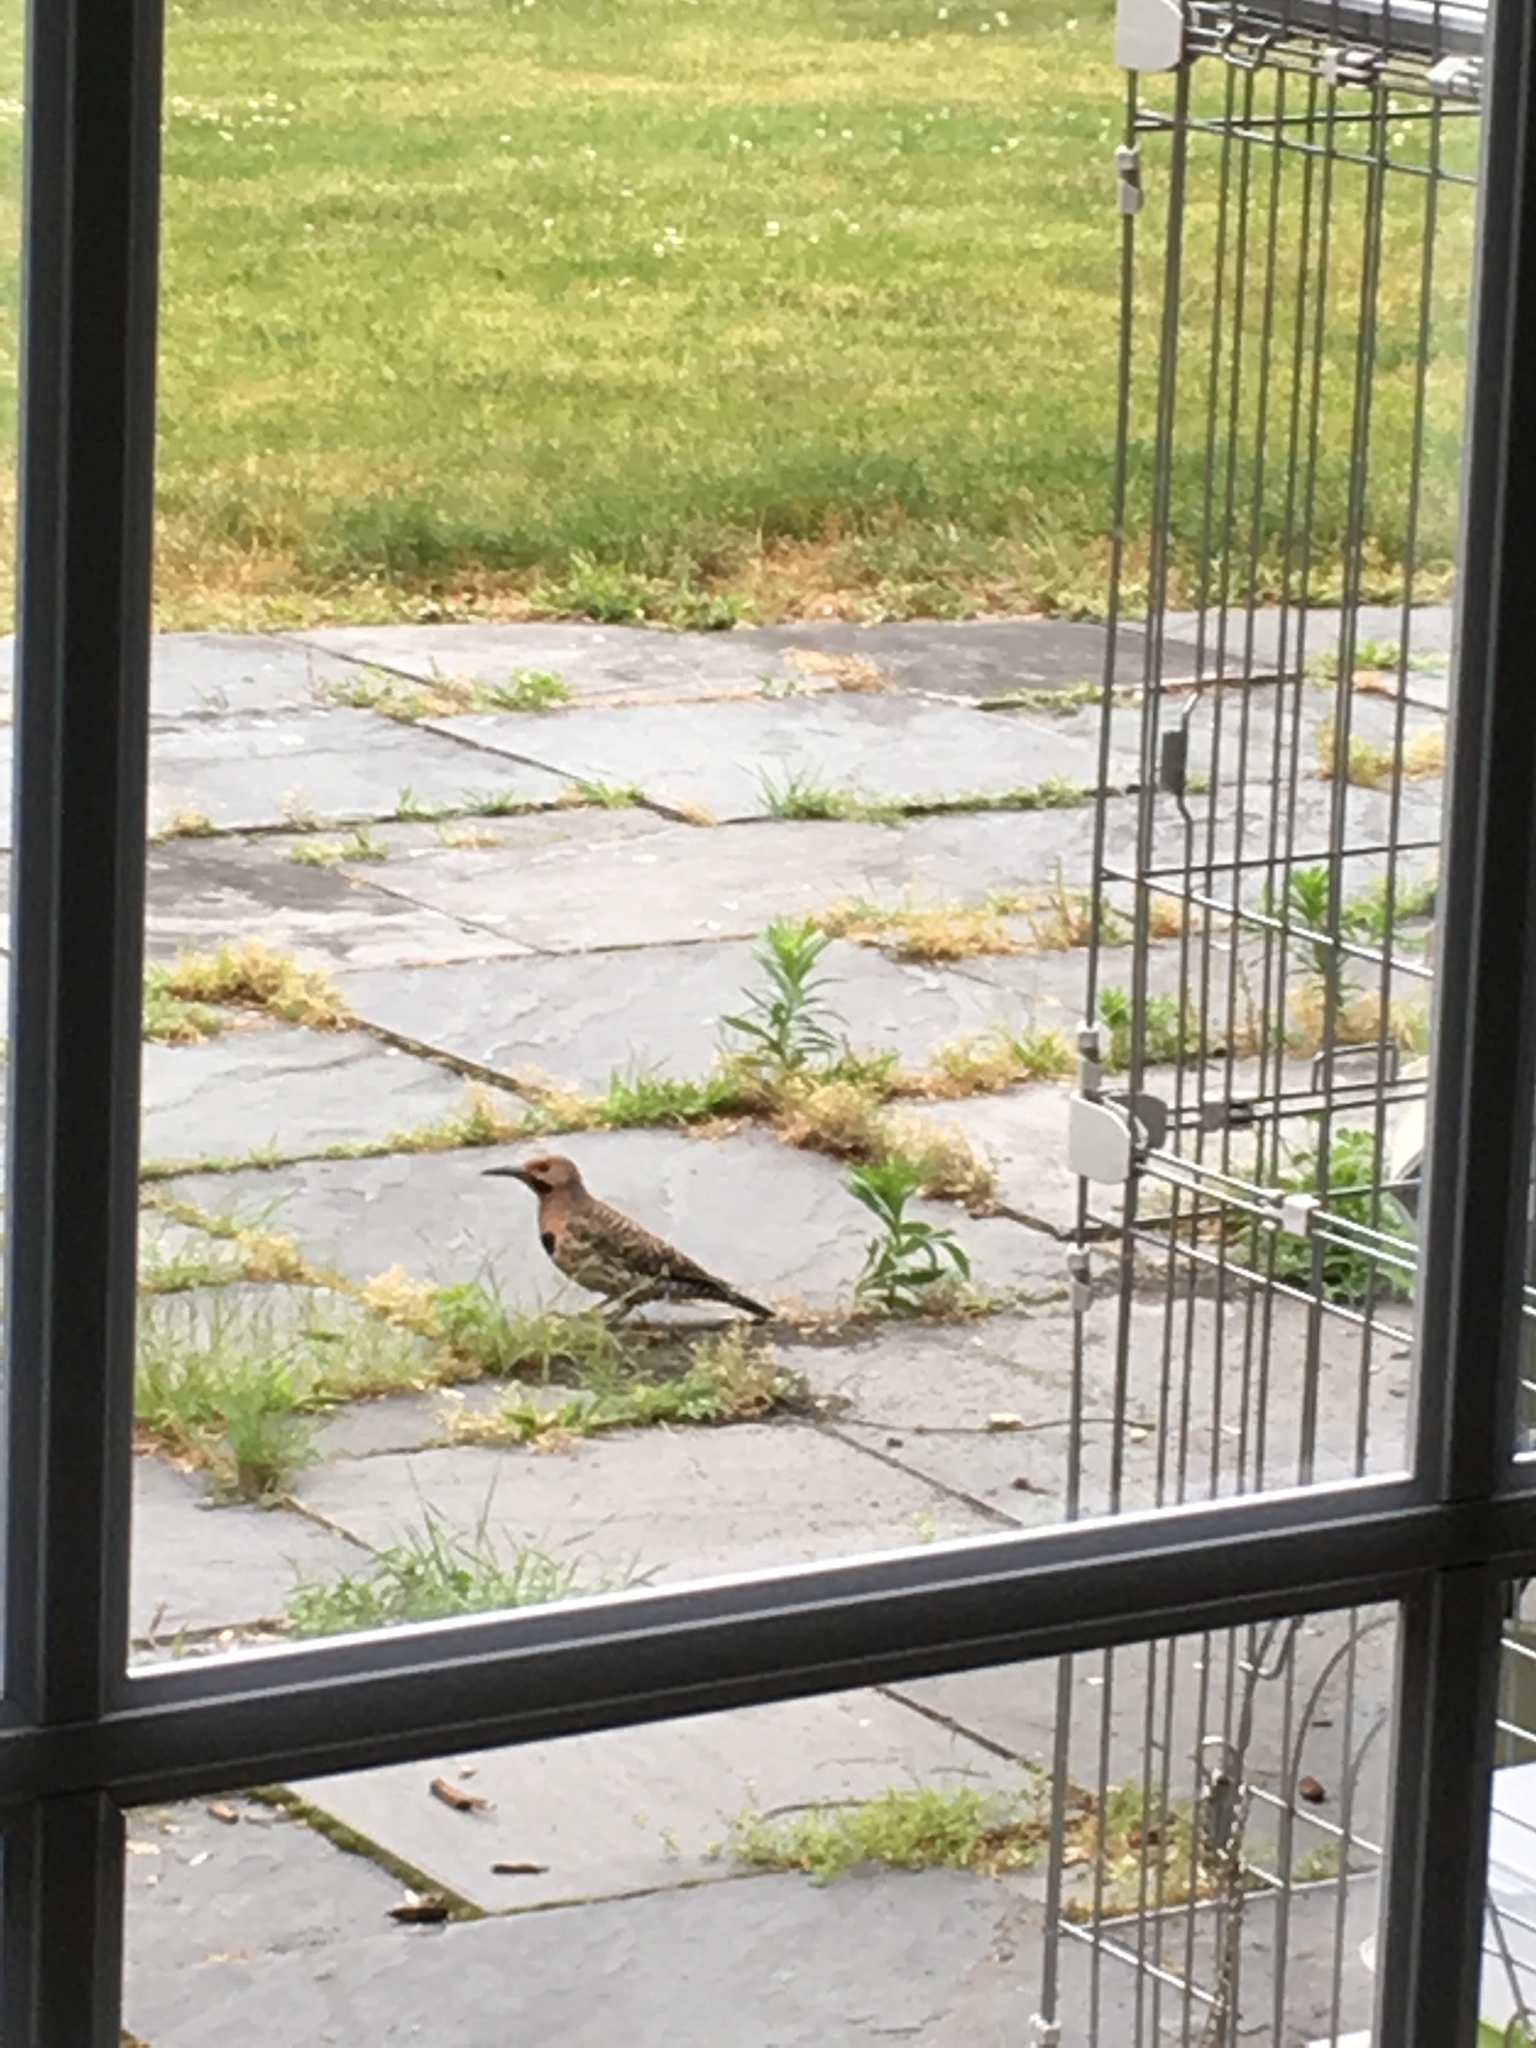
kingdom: Animalia
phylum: Chordata
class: Aves
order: Piciformes
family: Picidae
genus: Colaptes
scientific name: Colaptes auratus
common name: Northern flicker
